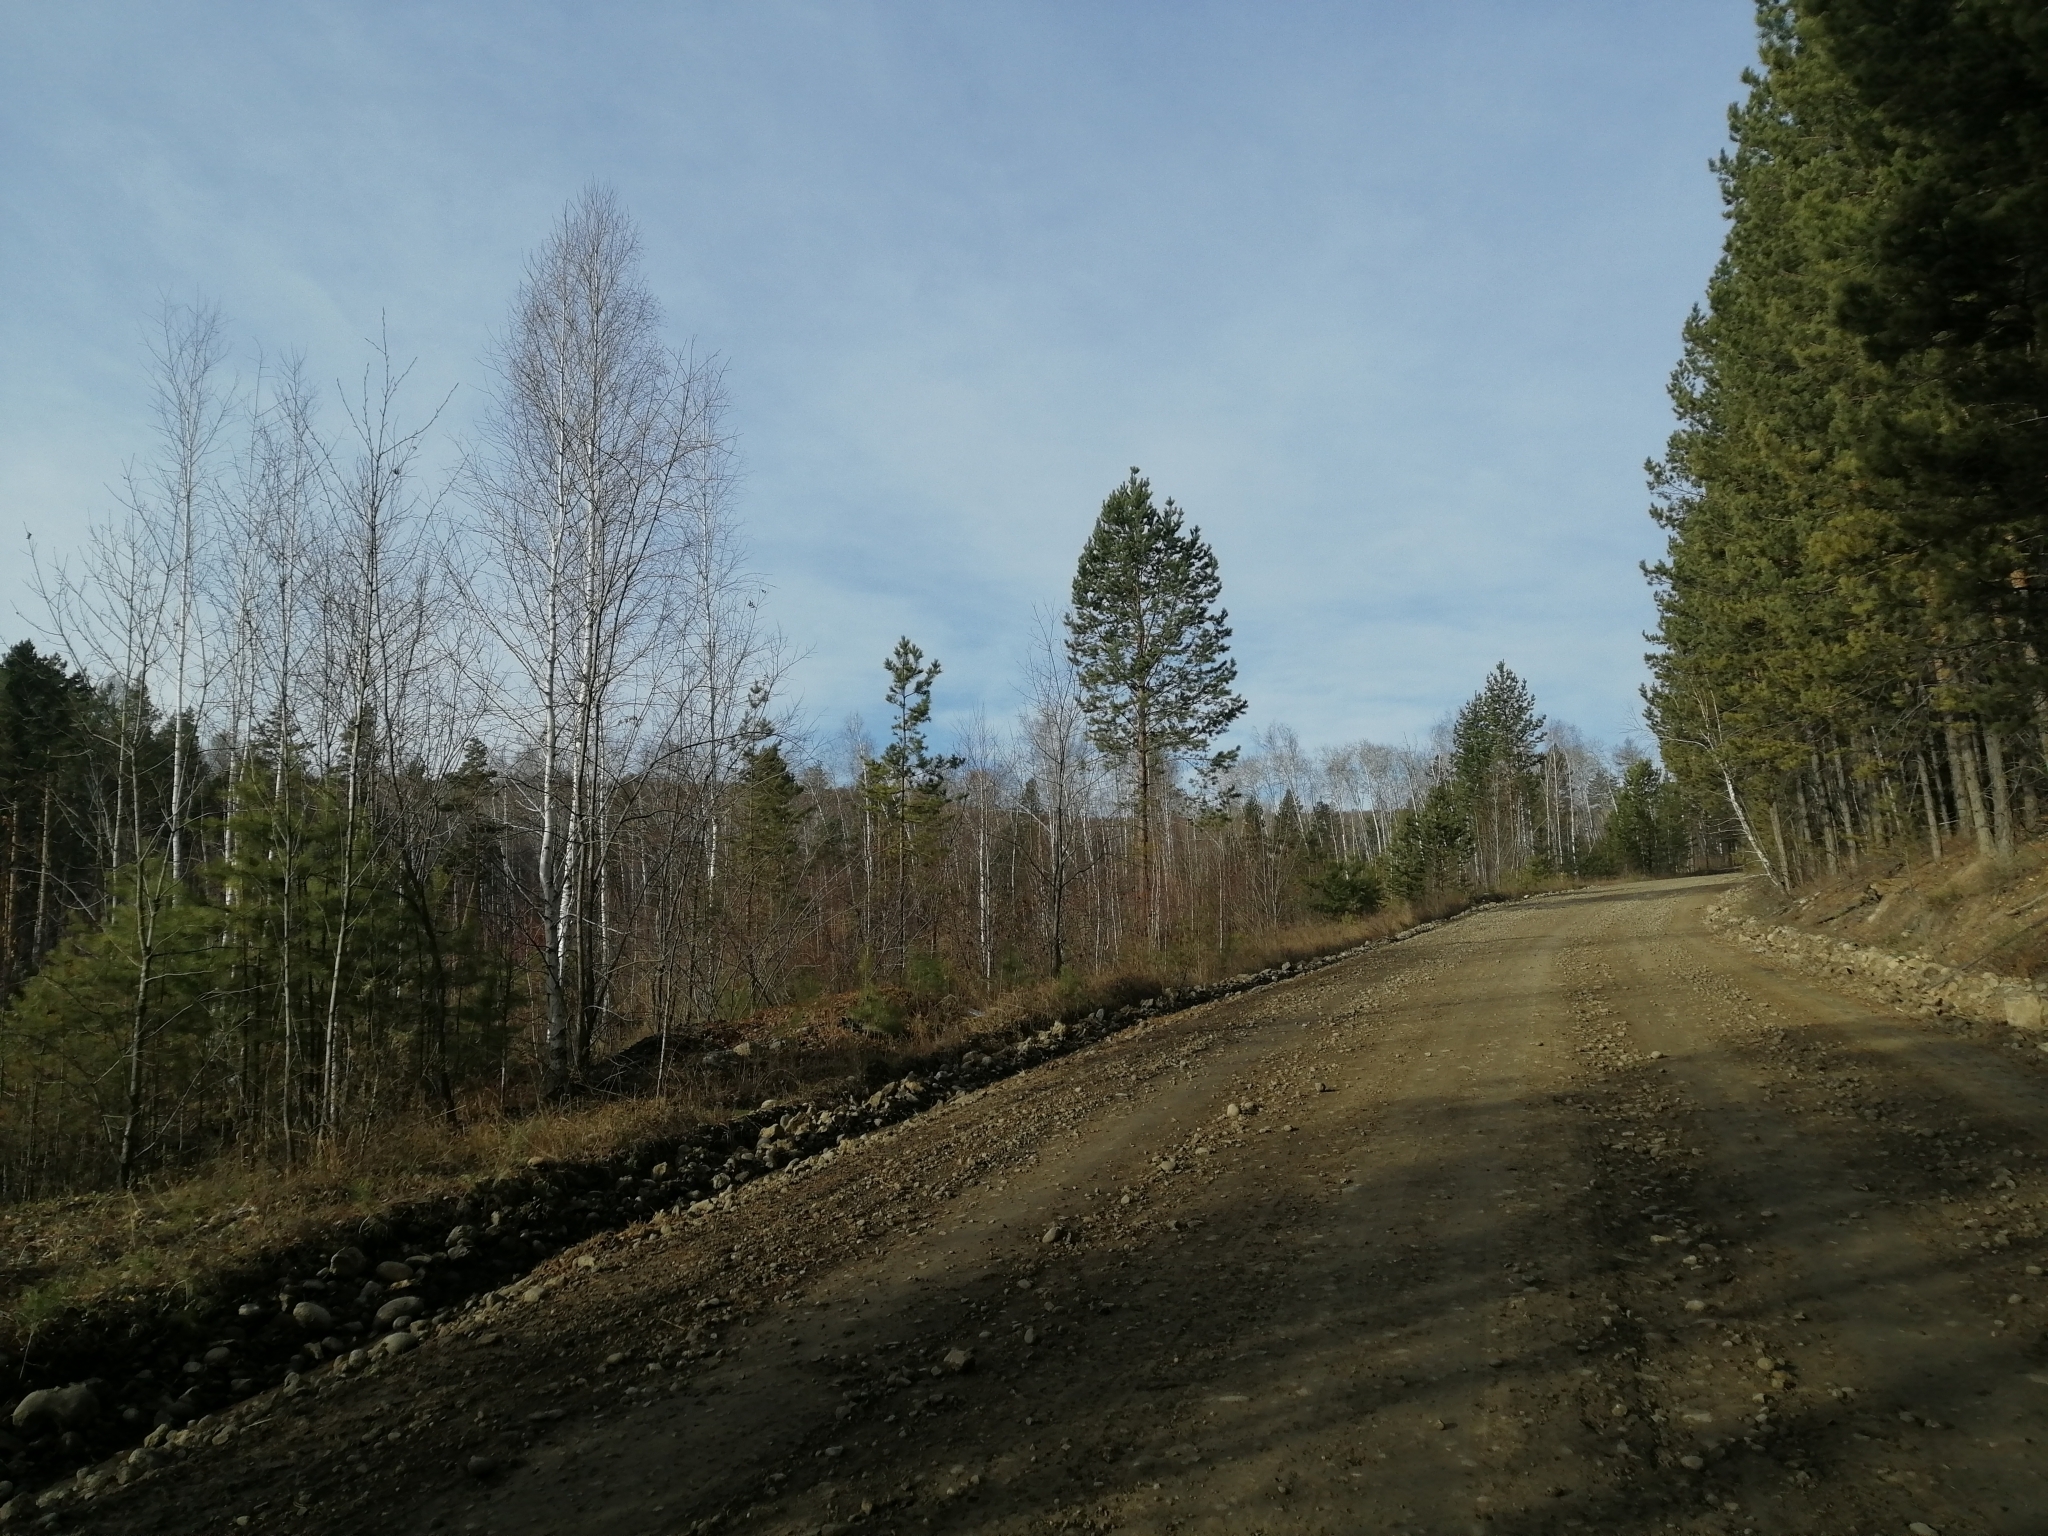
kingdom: Plantae
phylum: Tracheophyta
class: Pinopsida
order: Pinales
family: Pinaceae
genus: Pinus
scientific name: Pinus sylvestris
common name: Scots pine
